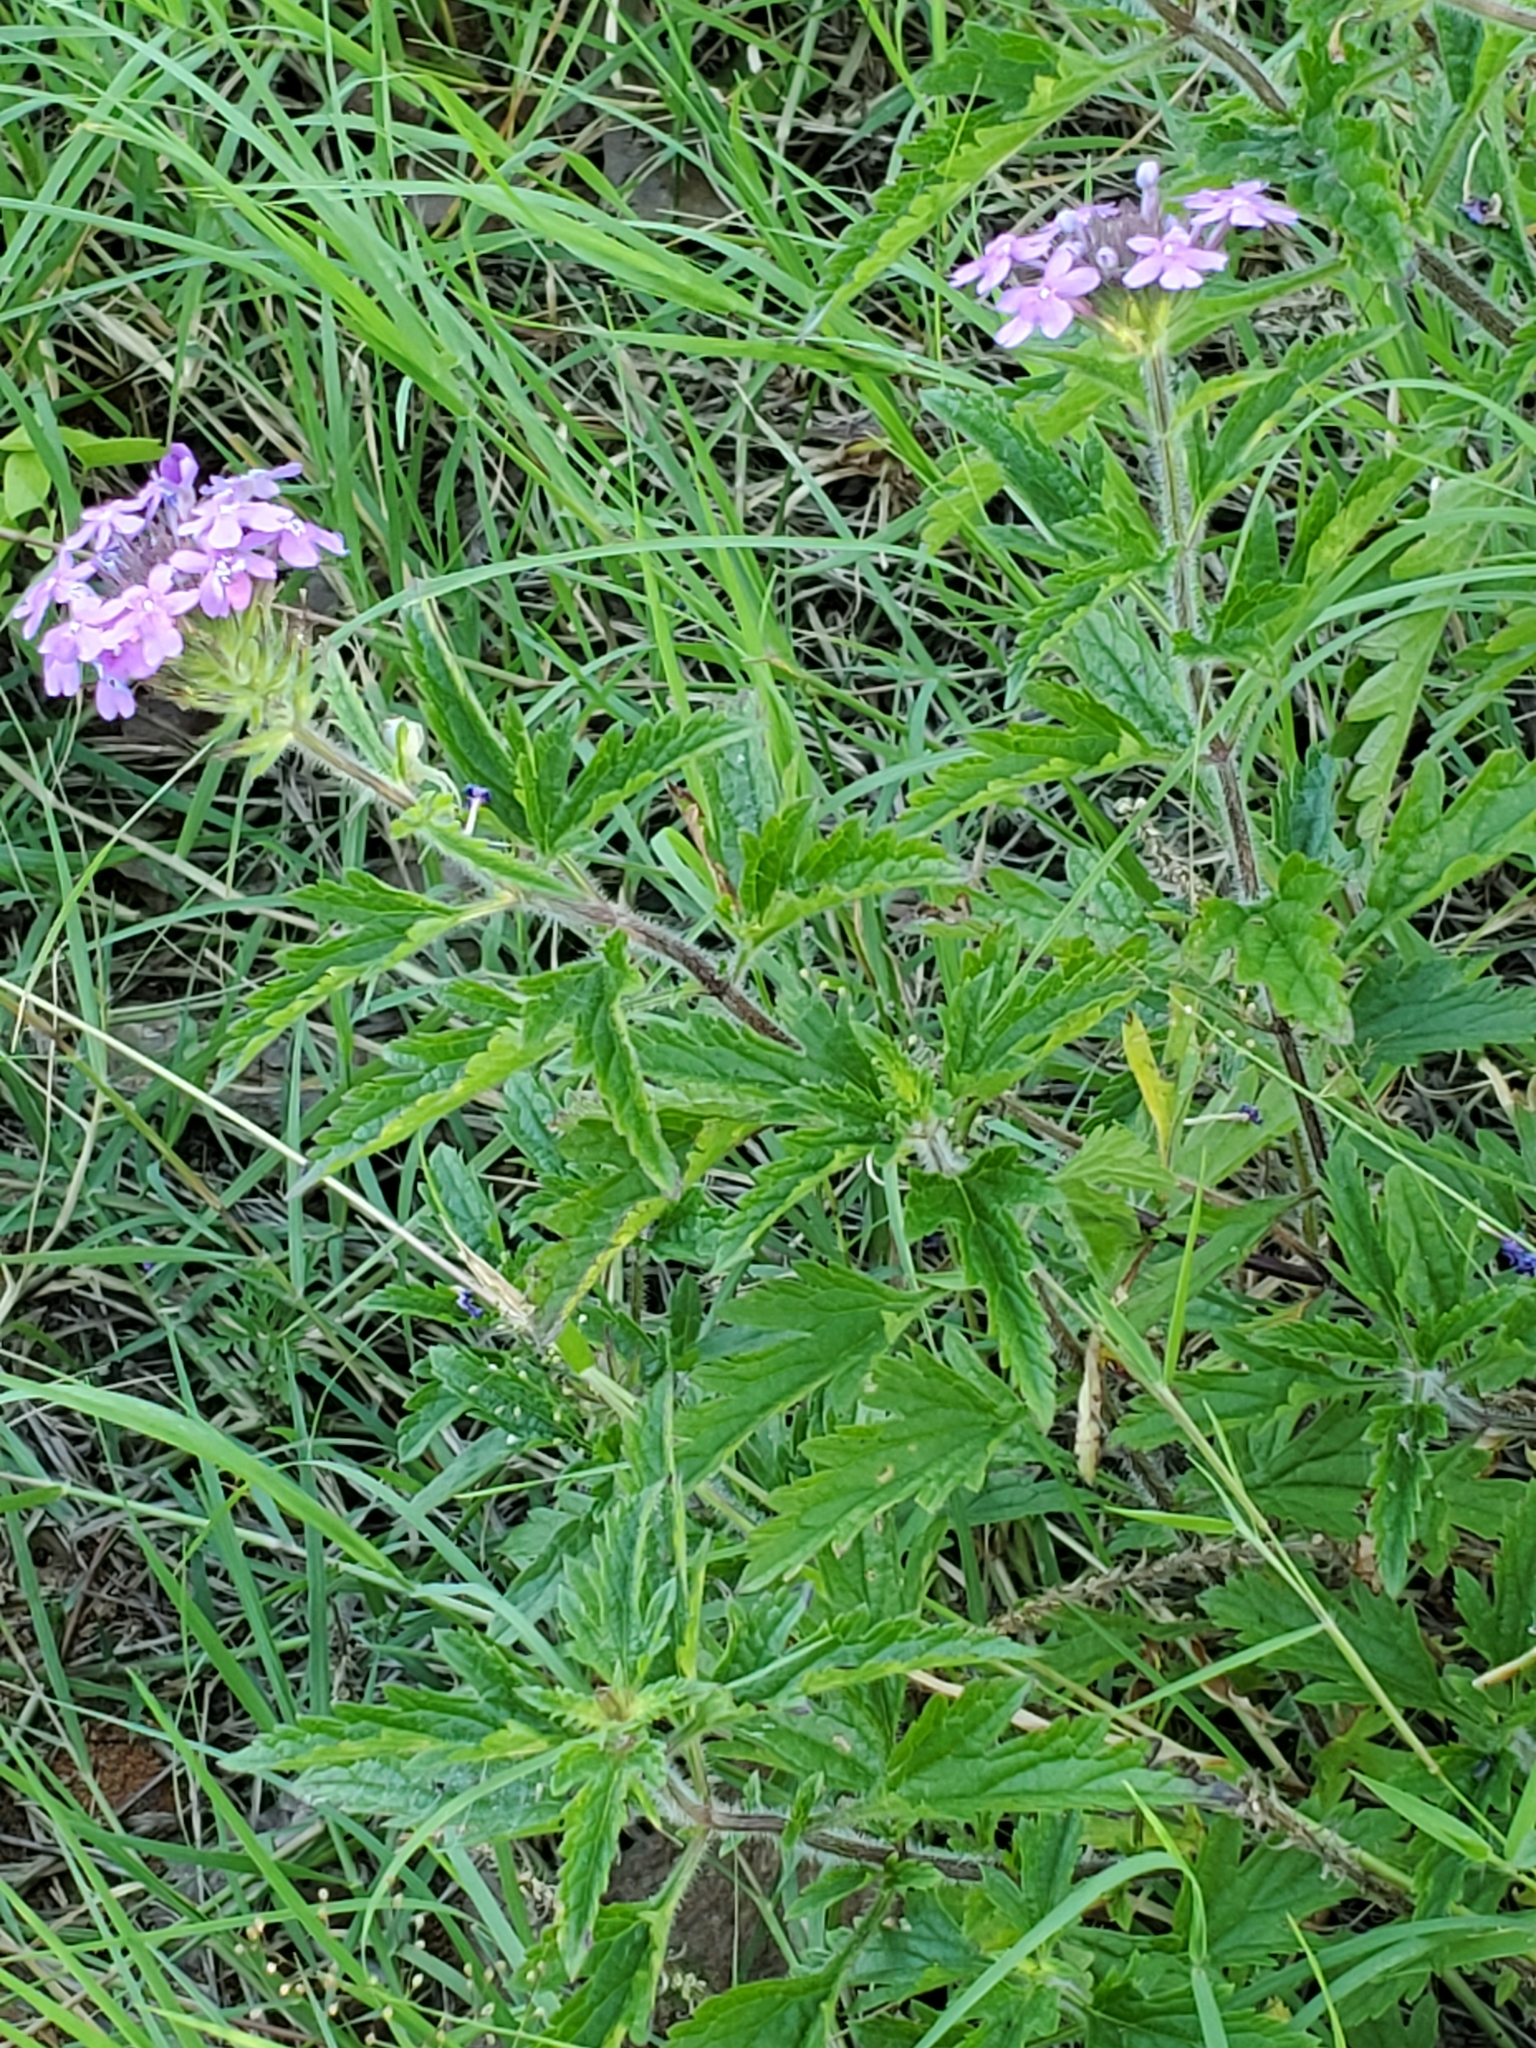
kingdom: Plantae
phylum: Tracheophyta
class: Magnoliopsida
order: Lamiales
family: Verbenaceae
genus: Verbena
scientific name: Verbena canadensis
